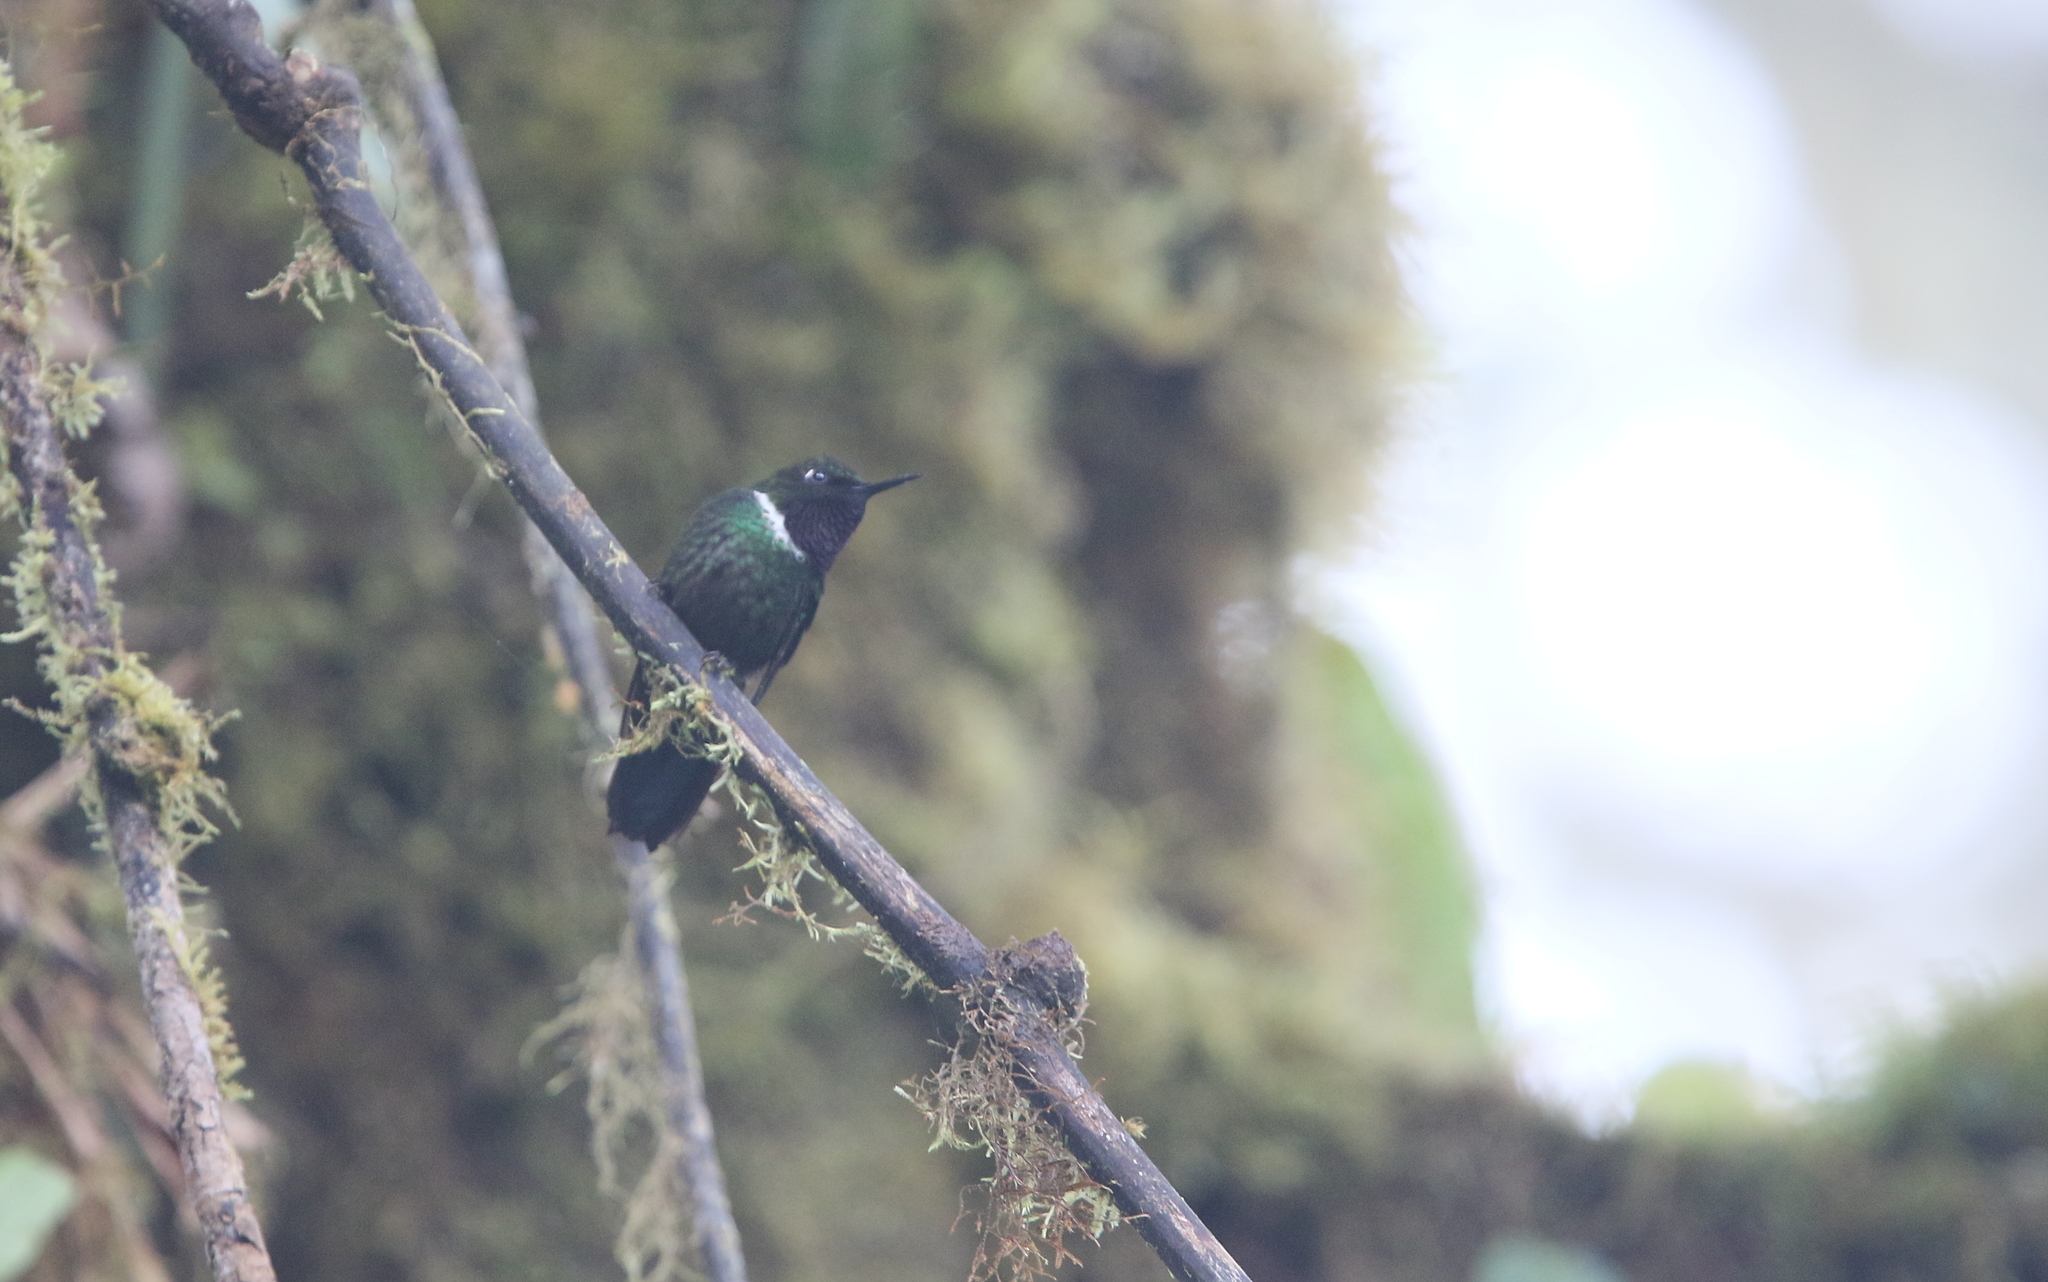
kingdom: Animalia
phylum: Chordata
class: Aves
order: Apodiformes
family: Trochilidae
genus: Heliangelus
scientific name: Heliangelus strophianus
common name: Gorgeted sunangel
